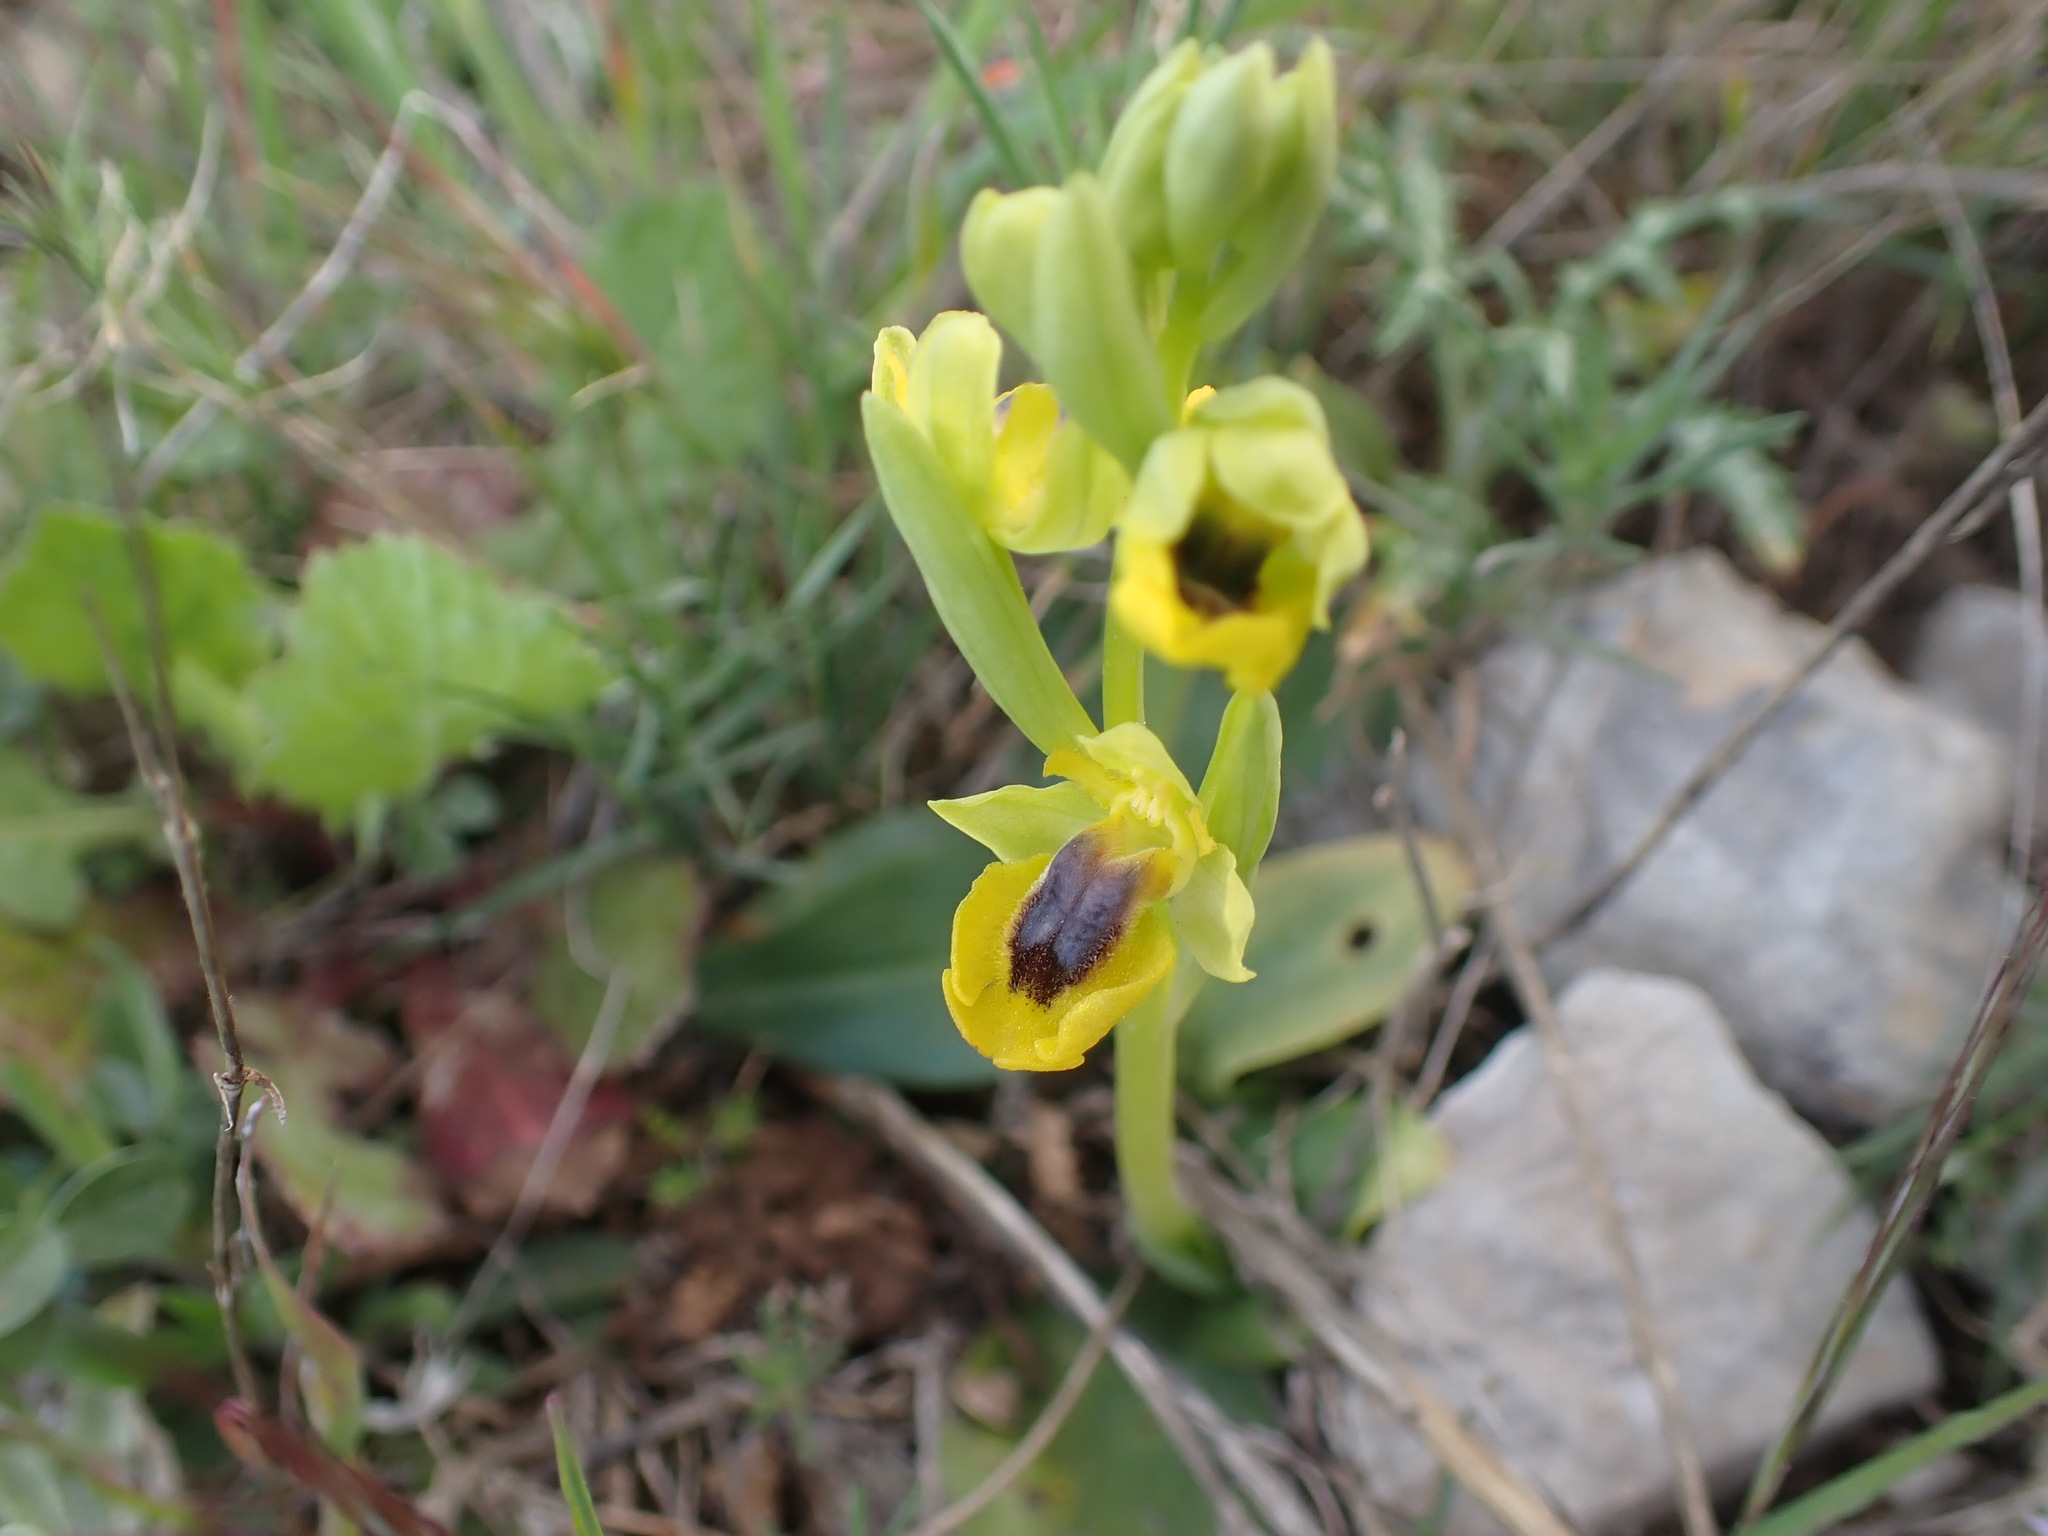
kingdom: Plantae
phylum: Tracheophyta
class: Liliopsida
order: Asparagales
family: Orchidaceae
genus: Ophrys
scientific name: Ophrys lutea
